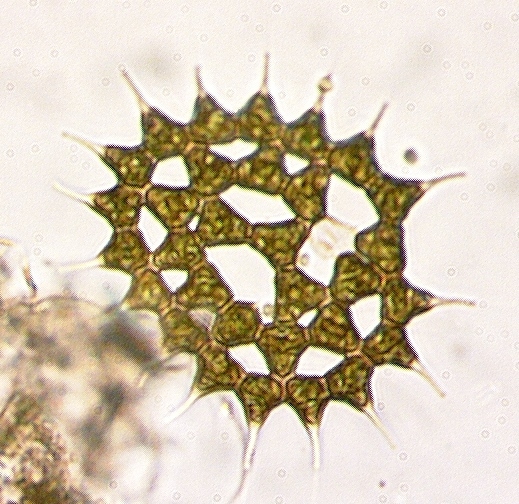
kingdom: Plantae
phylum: Chlorophyta
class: Chlorophyceae
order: Sphaeropleales
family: Hydrodictyaceae
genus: Monactinus
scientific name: Monactinus simplex
